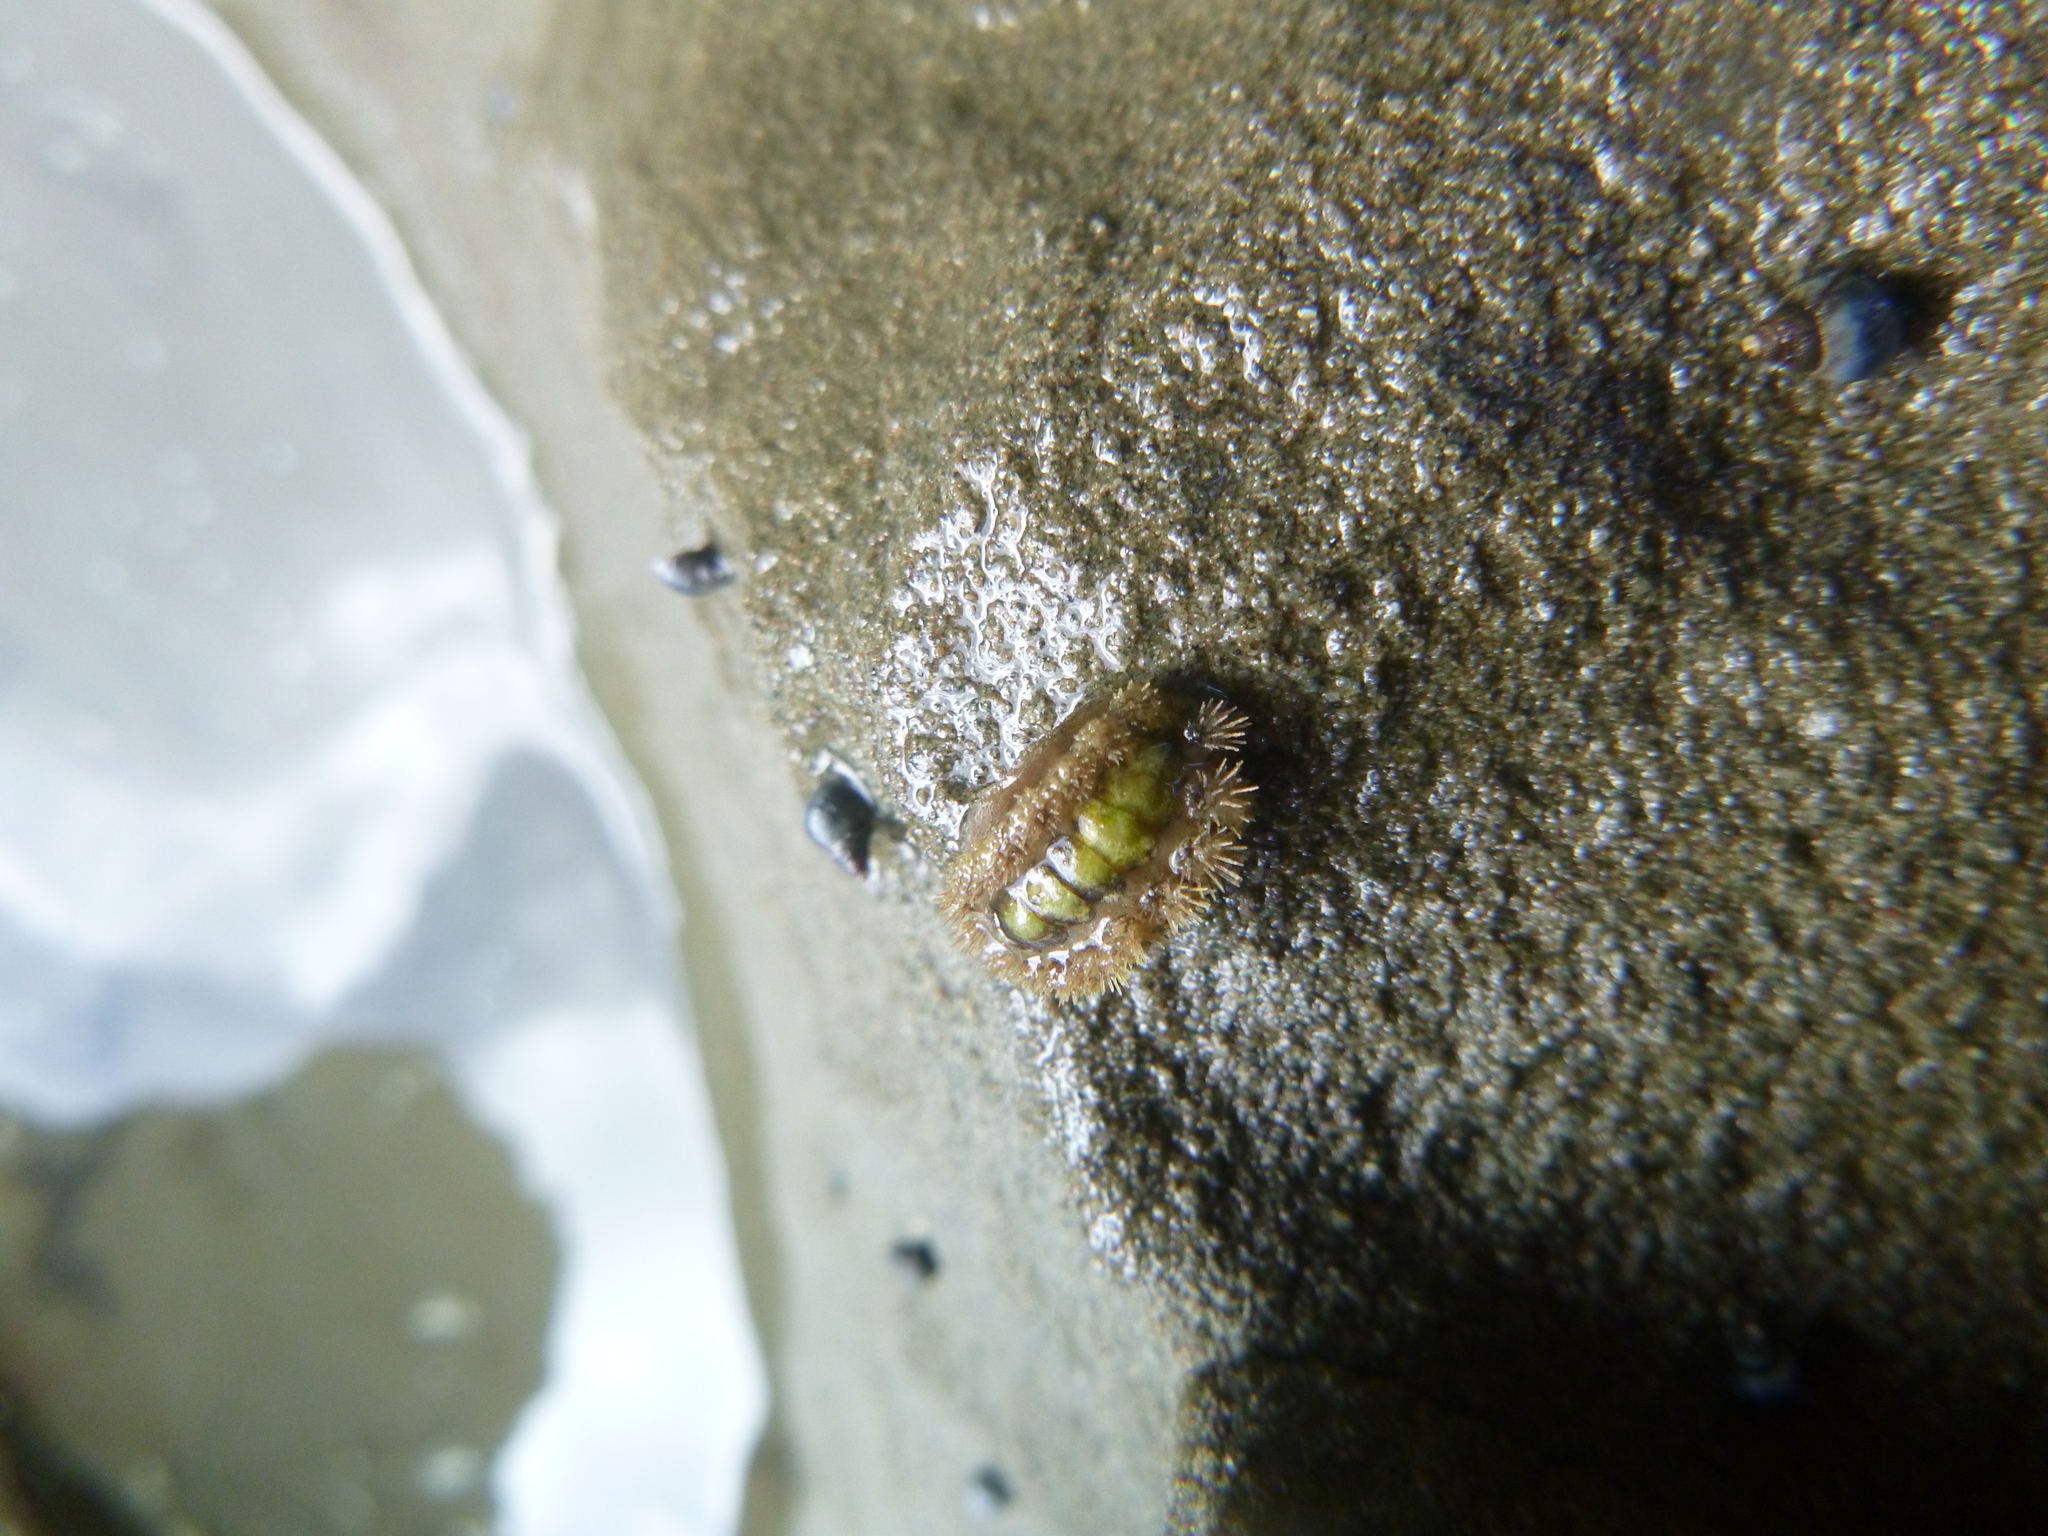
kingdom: Animalia
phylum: Mollusca
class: Polyplacophora
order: Chitonida
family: Acanthochitonidae
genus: Acanthochitona
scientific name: Acanthochitona zelandica
